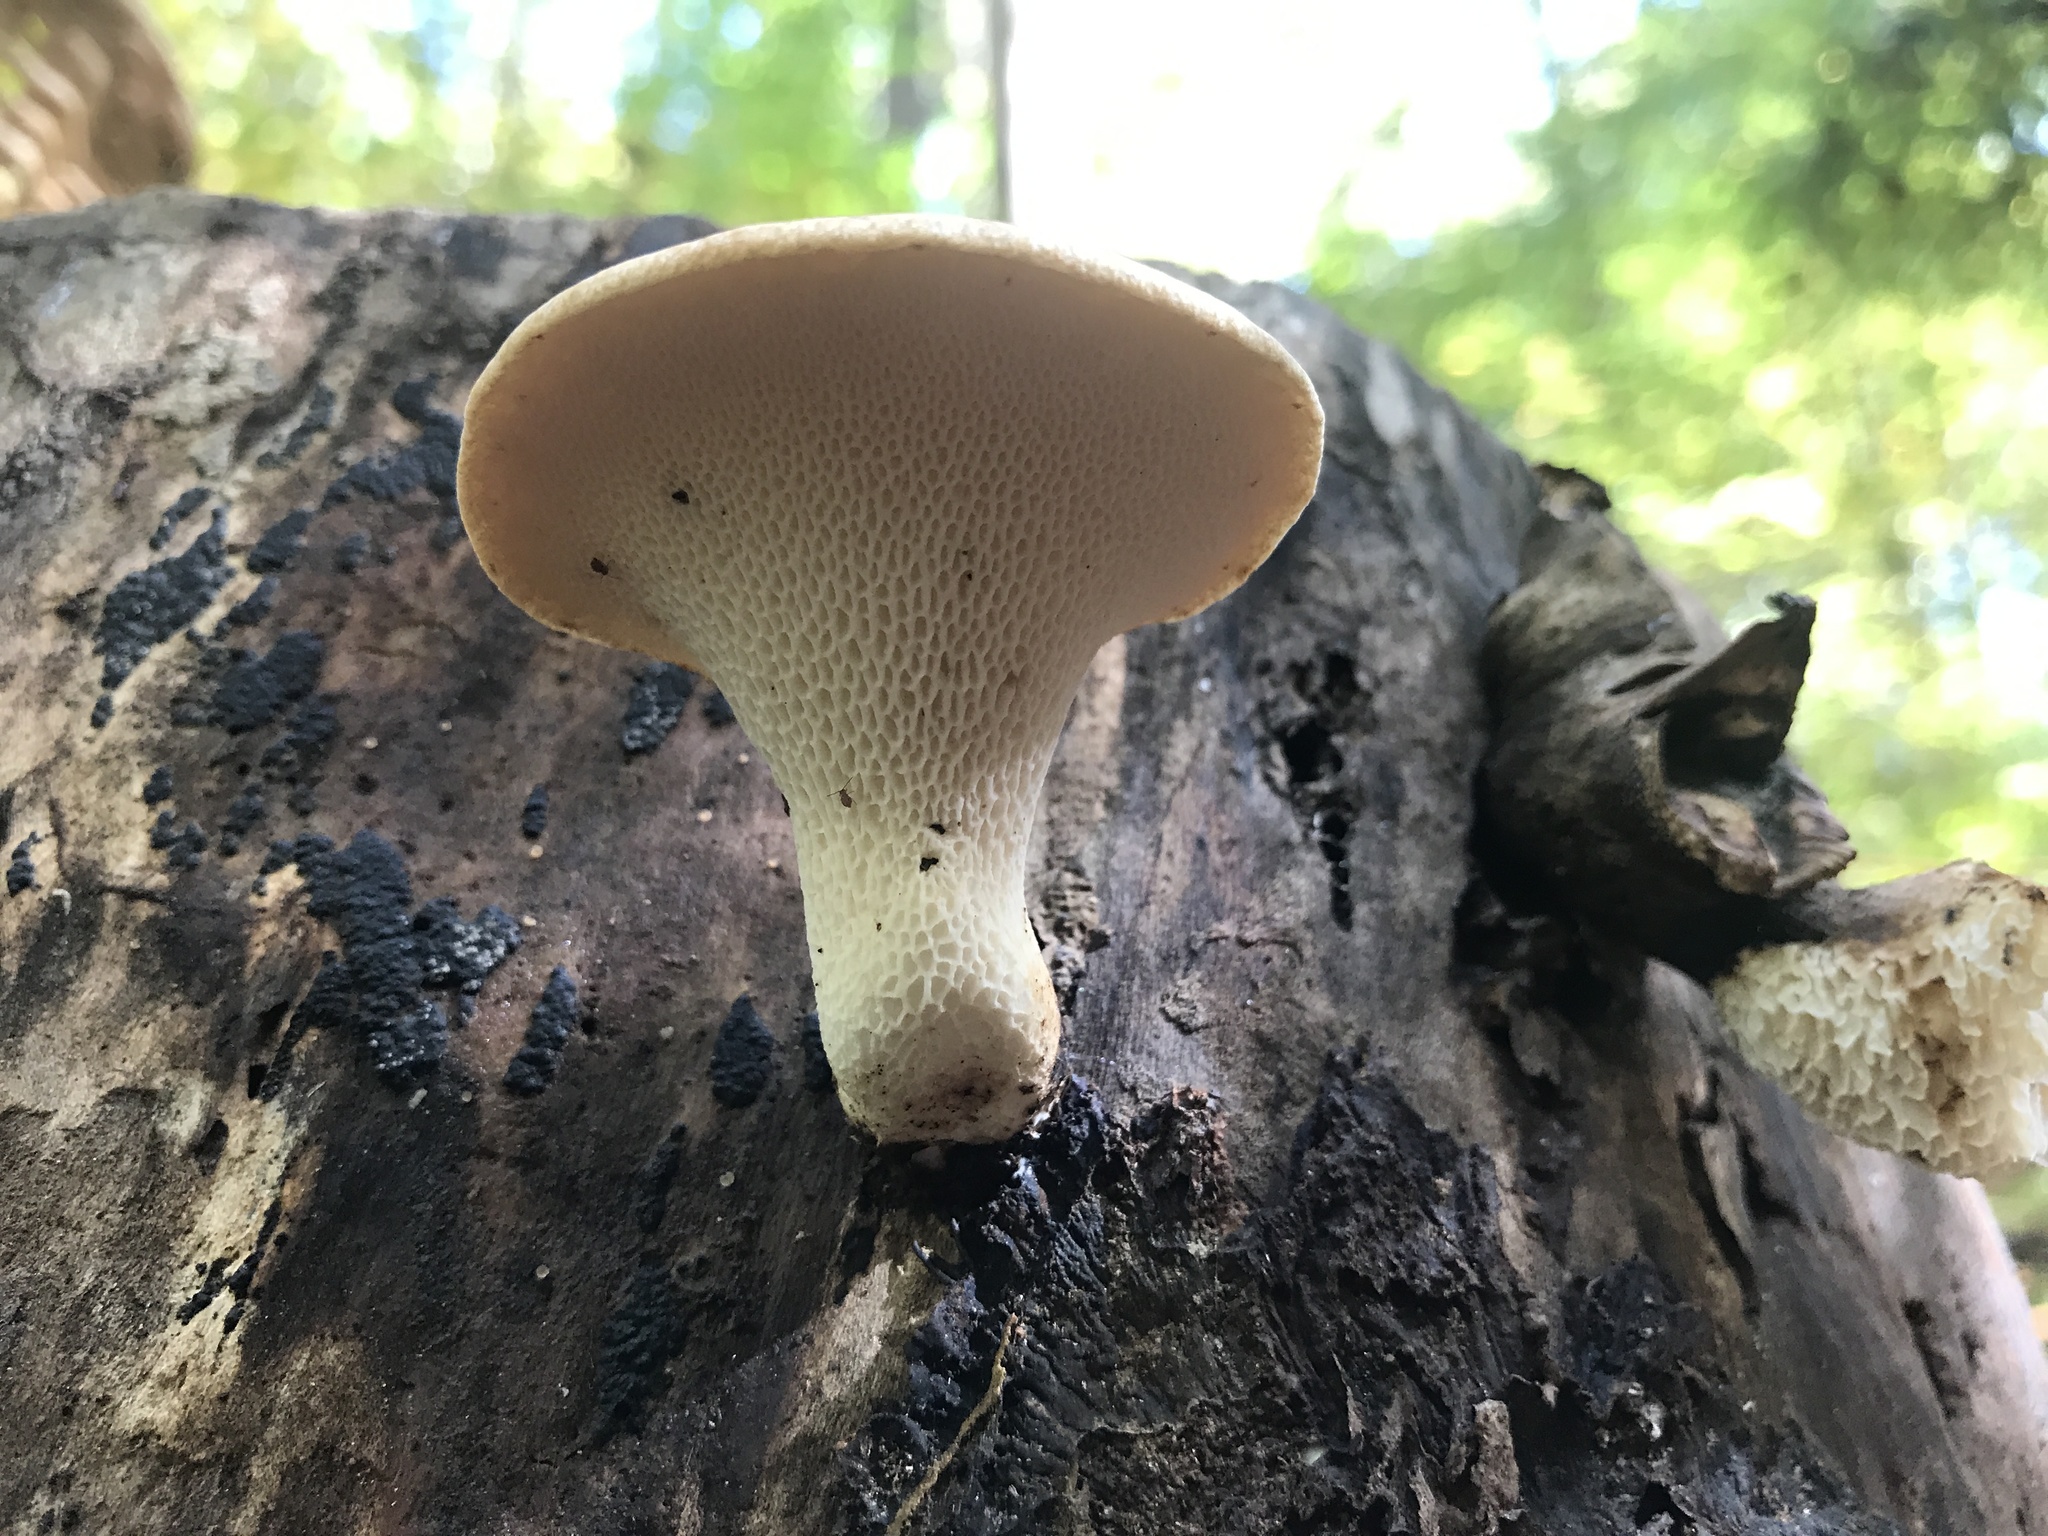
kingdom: Fungi
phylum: Basidiomycota
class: Agaricomycetes
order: Polyporales
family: Polyporaceae
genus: Cerioporus
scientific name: Cerioporus squamosus
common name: Dryad's saddle
